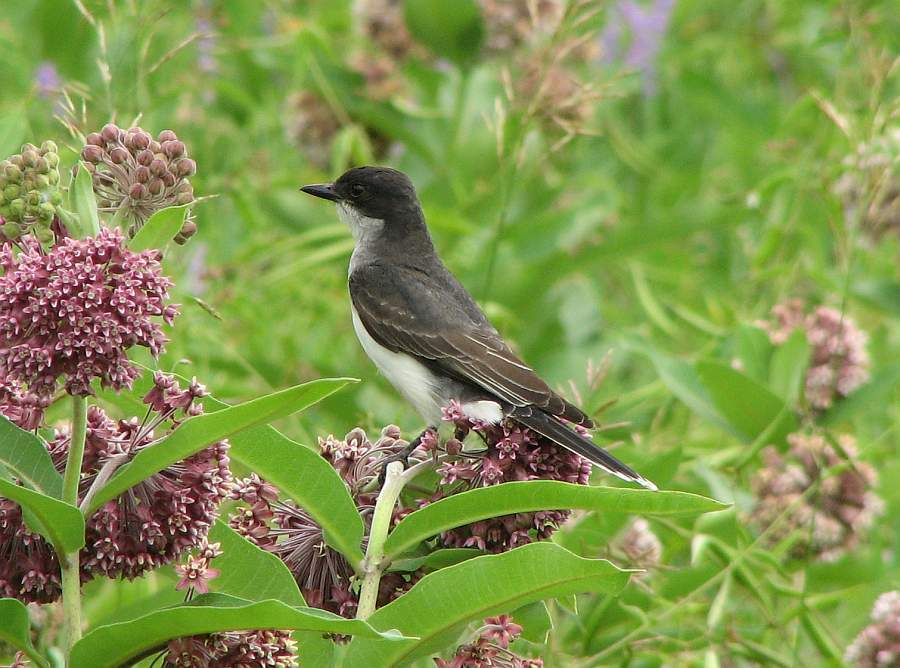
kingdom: Animalia
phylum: Chordata
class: Aves
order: Passeriformes
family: Tyrannidae
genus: Tyrannus
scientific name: Tyrannus tyrannus
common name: Eastern kingbird
